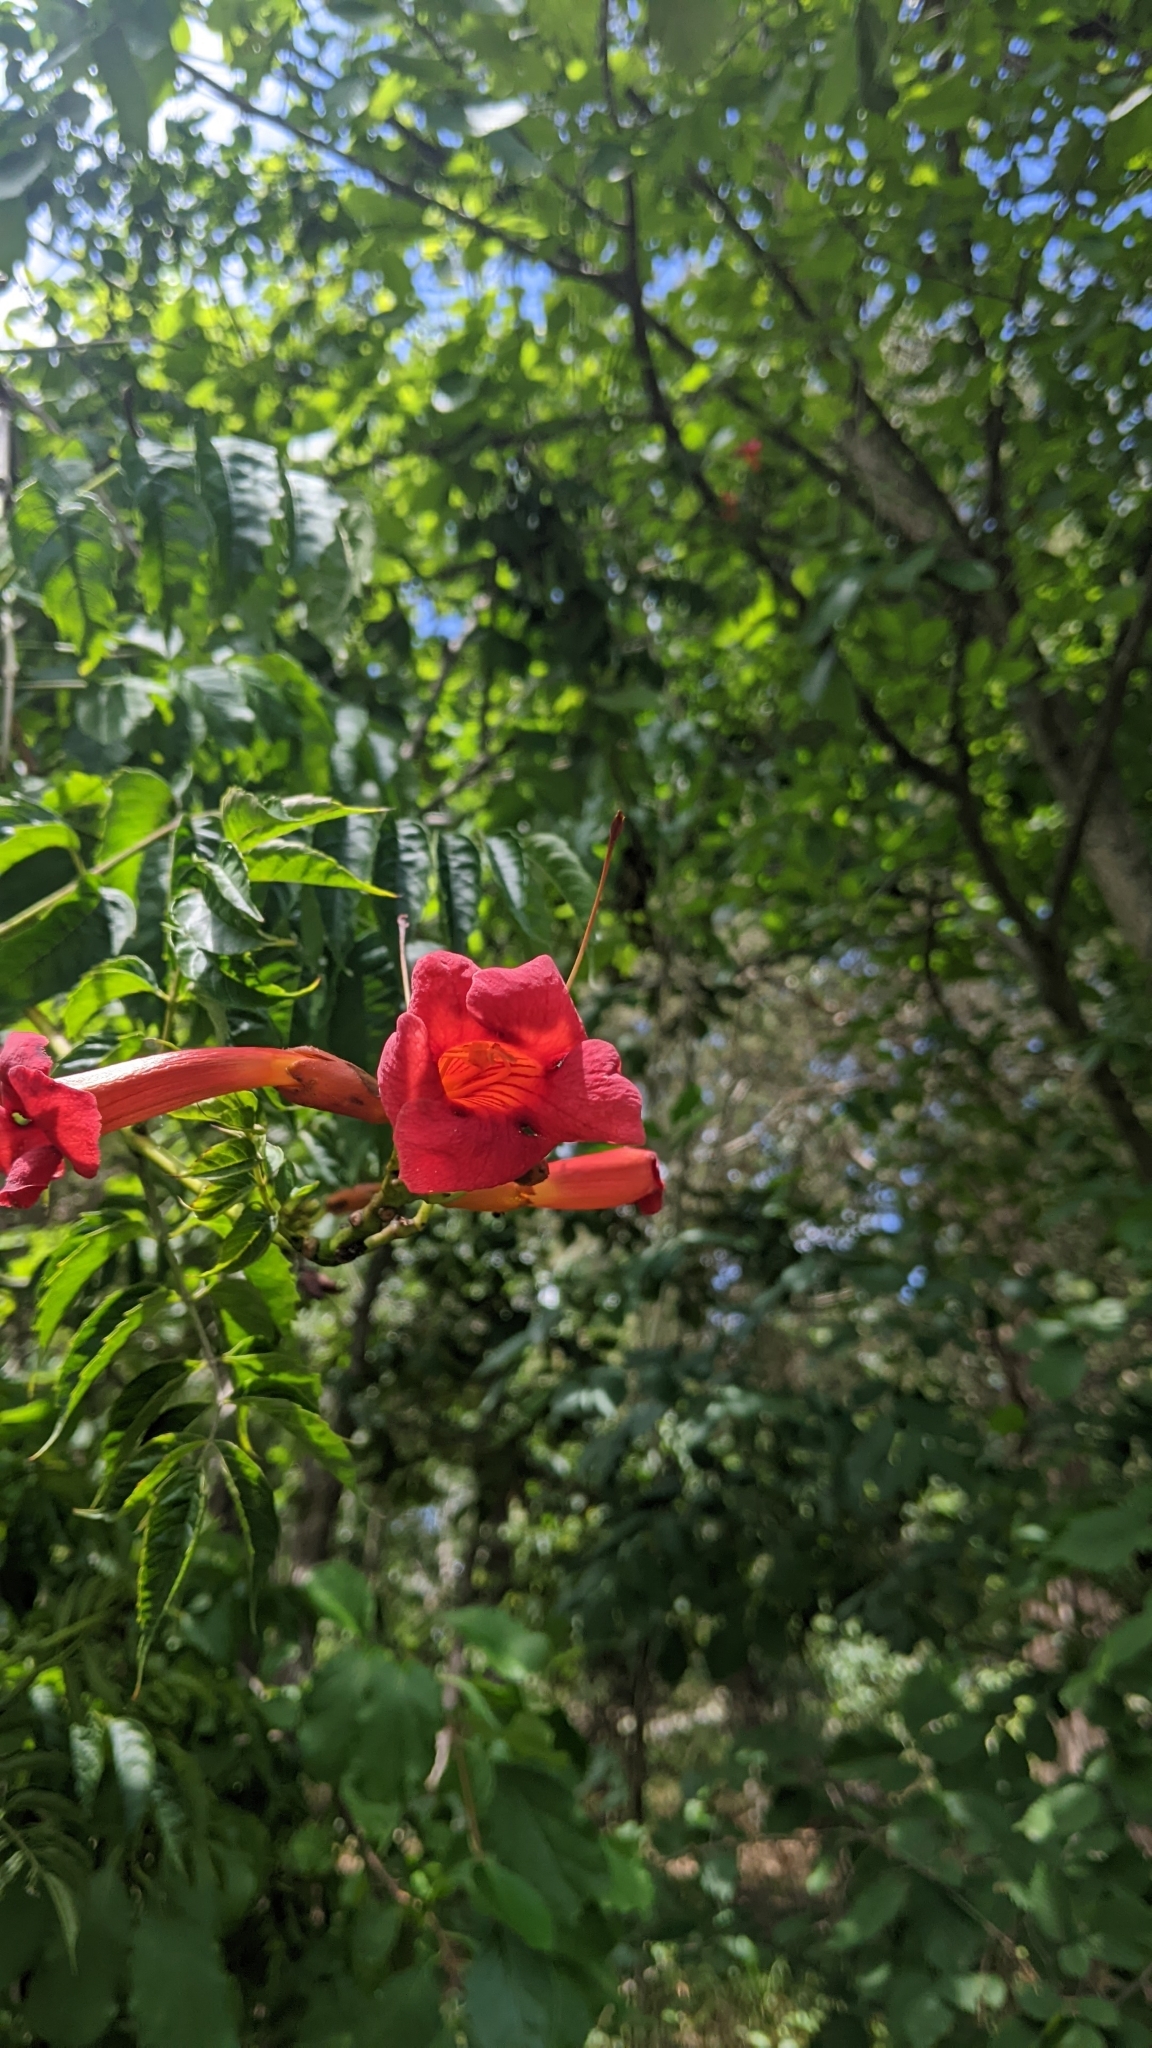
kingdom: Plantae
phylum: Tracheophyta
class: Magnoliopsida
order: Lamiales
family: Bignoniaceae
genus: Campsis
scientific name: Campsis radicans
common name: Trumpet-creeper
